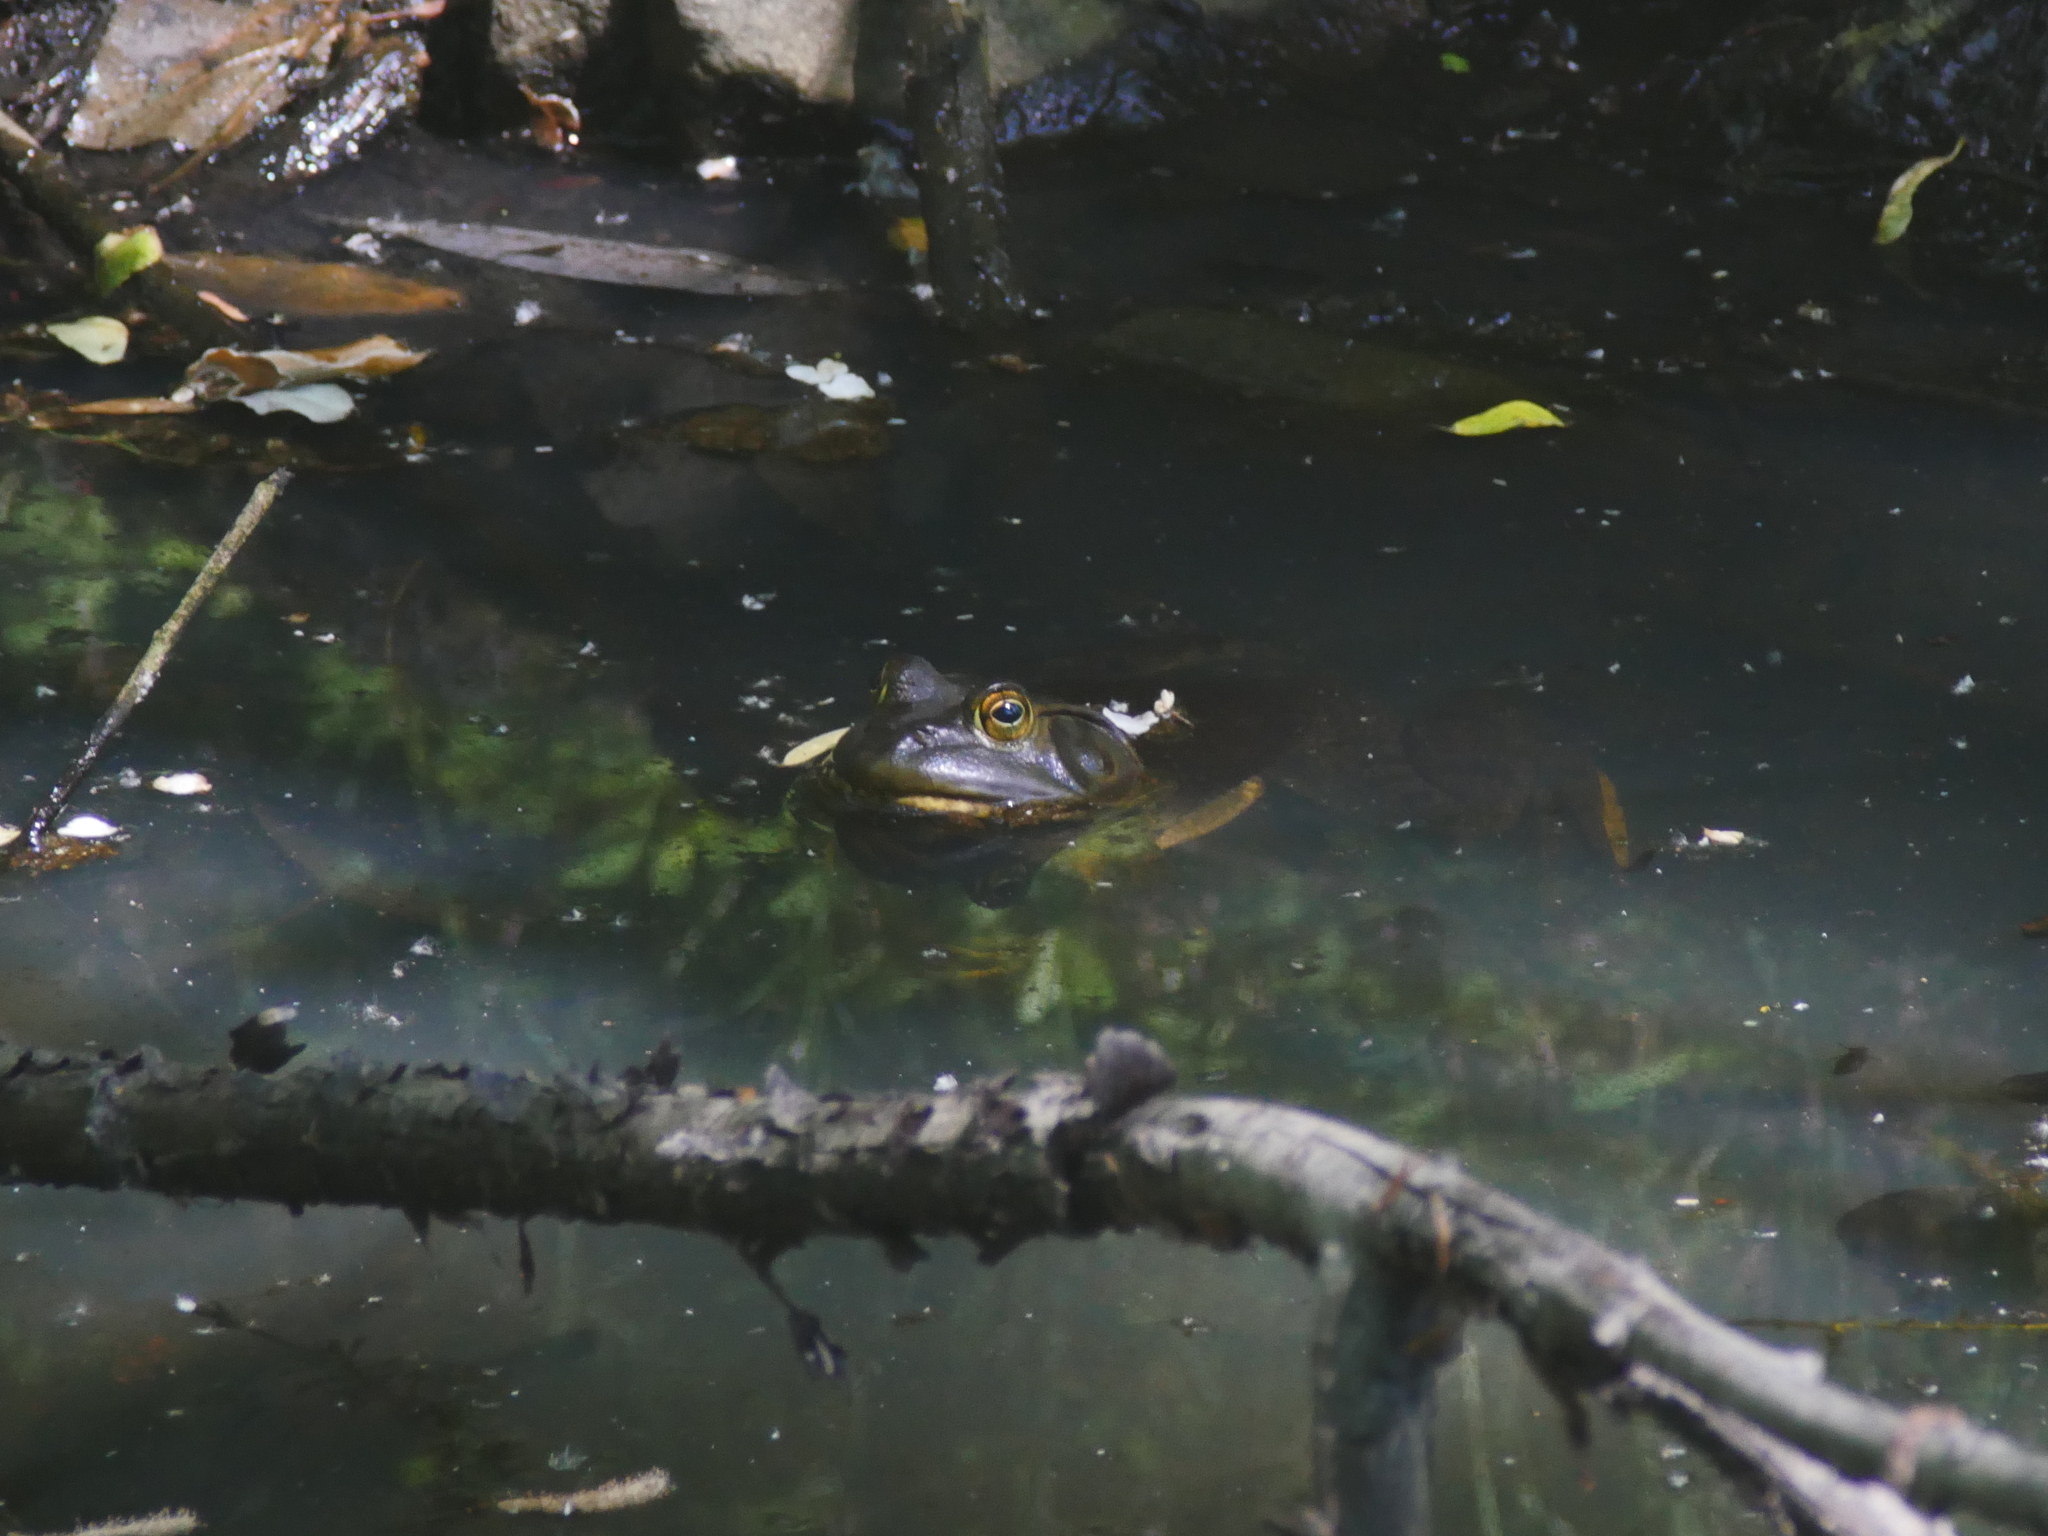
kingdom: Animalia
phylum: Chordata
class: Amphibia
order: Anura
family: Ranidae
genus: Lithobates
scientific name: Lithobates catesbeianus
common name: American bullfrog
